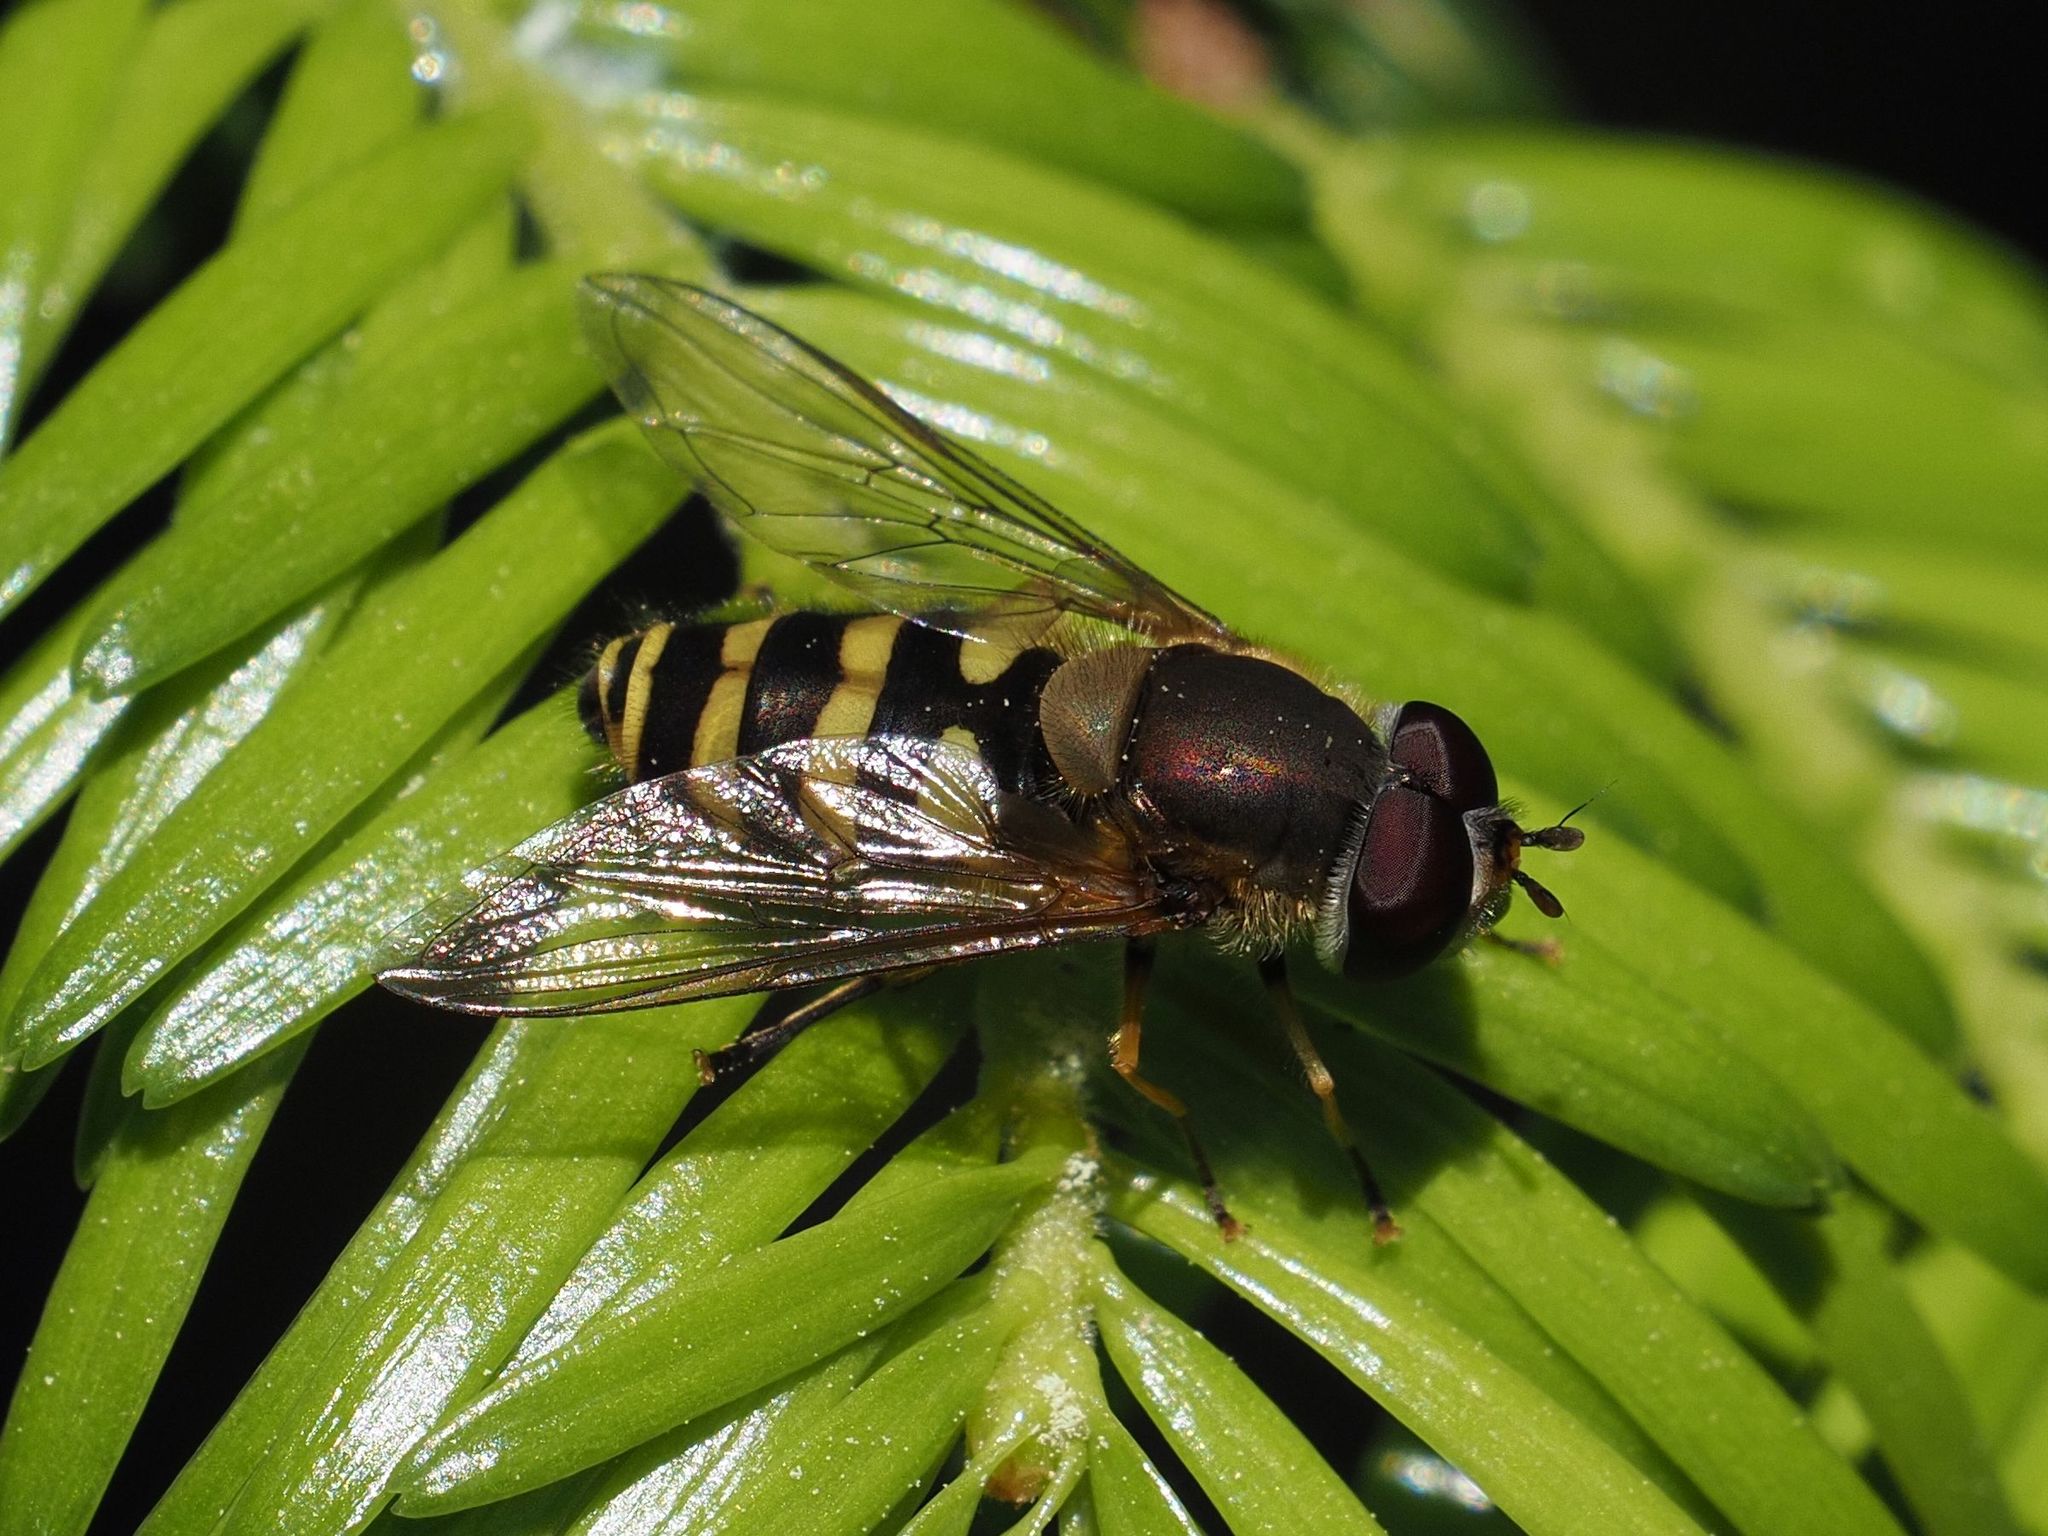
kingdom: Animalia
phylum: Arthropoda
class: Insecta
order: Diptera
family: Syrphidae
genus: Syrphus
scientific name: Syrphus
